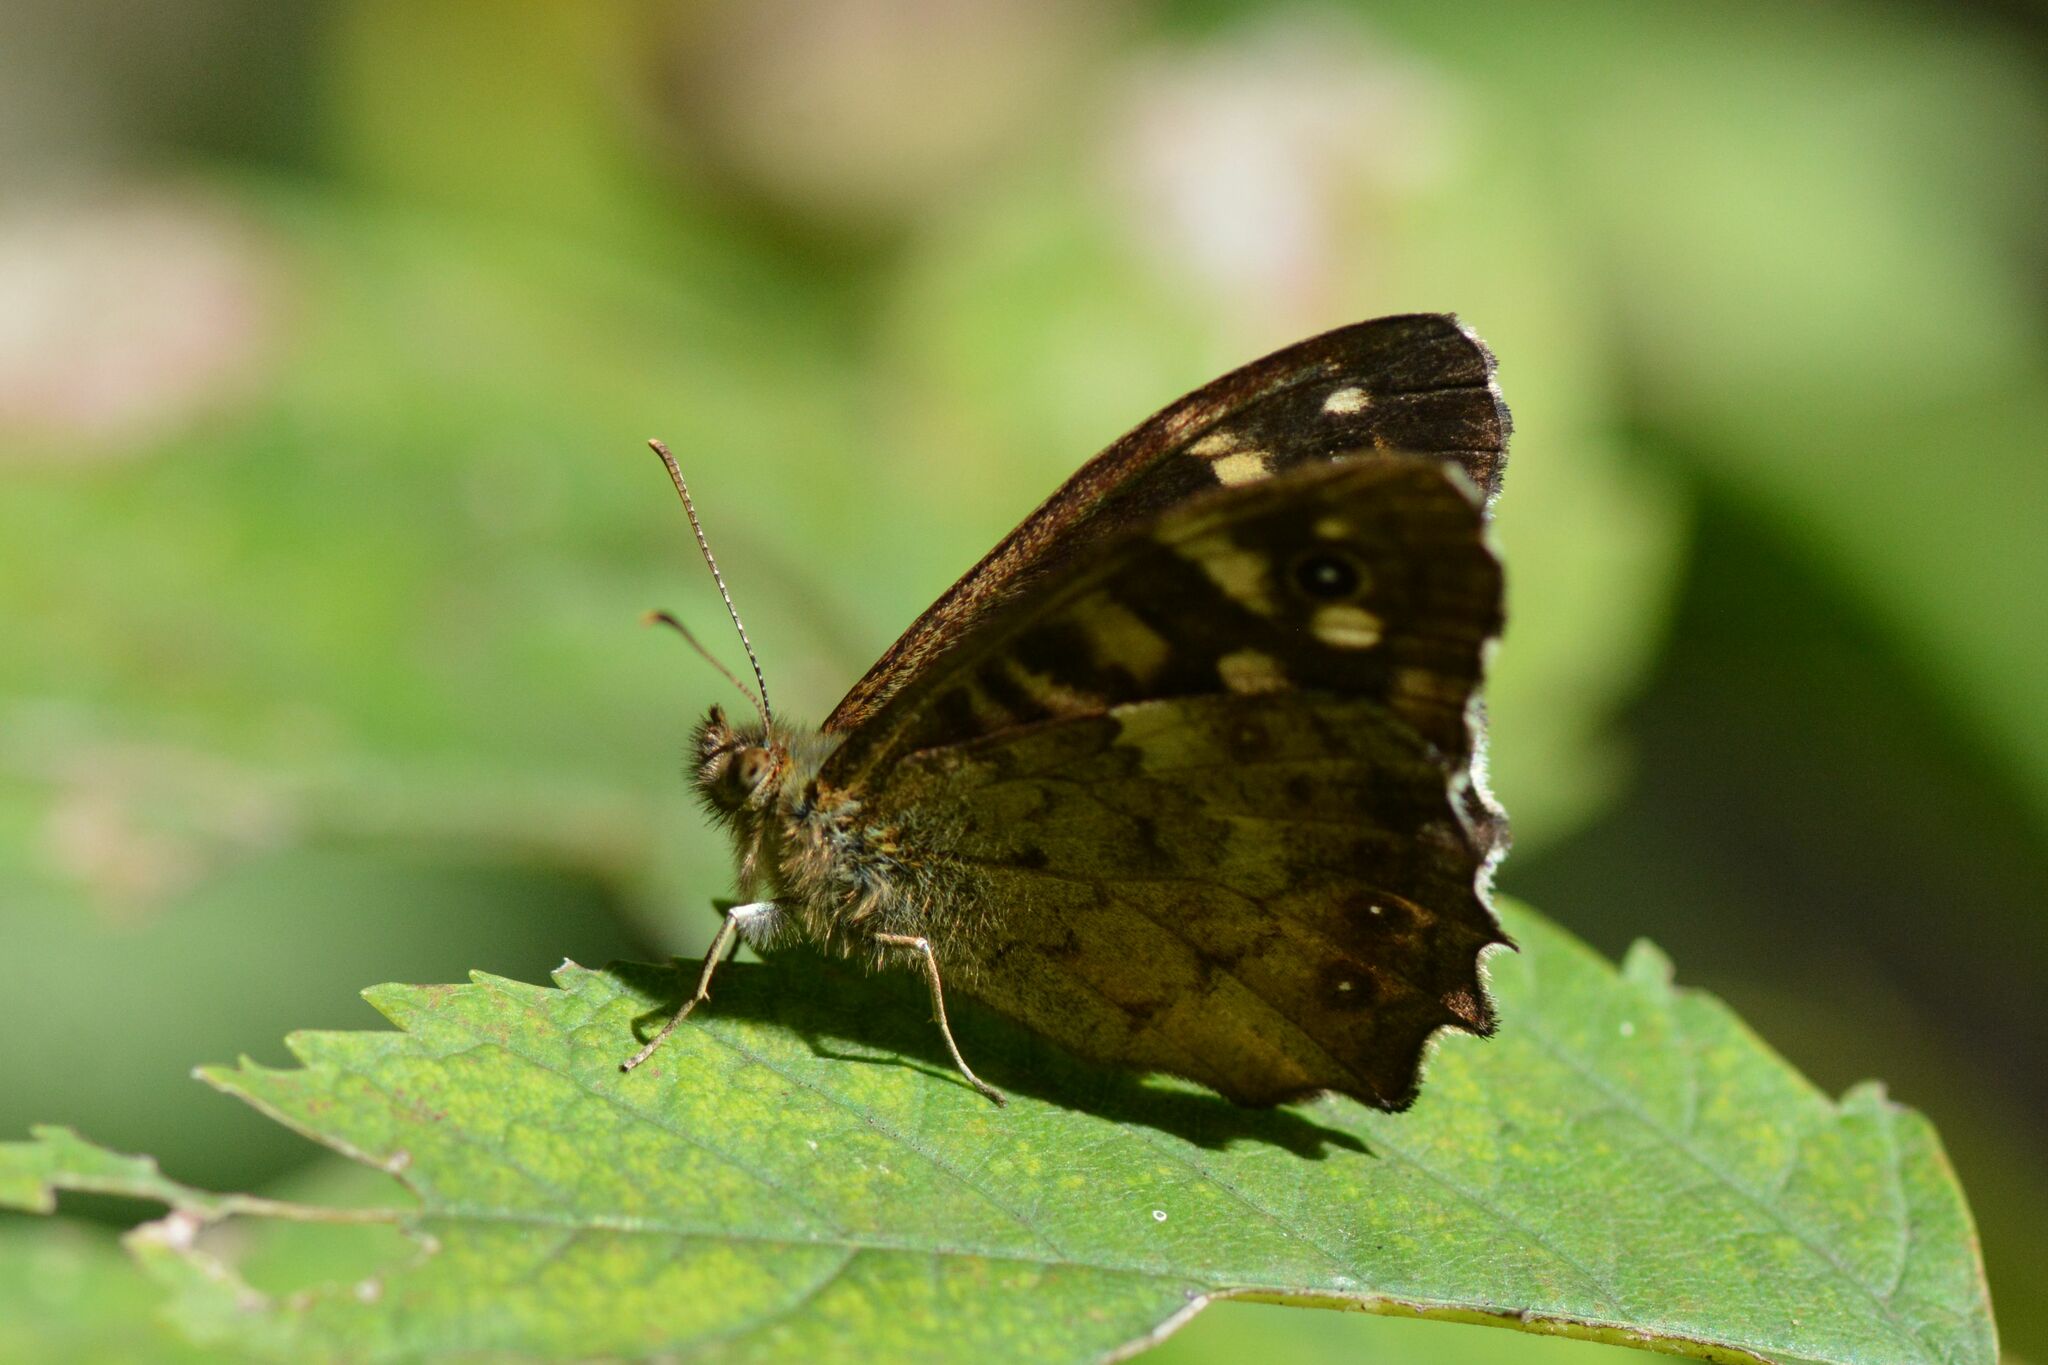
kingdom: Animalia
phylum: Arthropoda
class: Insecta
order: Lepidoptera
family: Nymphalidae
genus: Pararge
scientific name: Pararge aegeria
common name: Speckled wood
